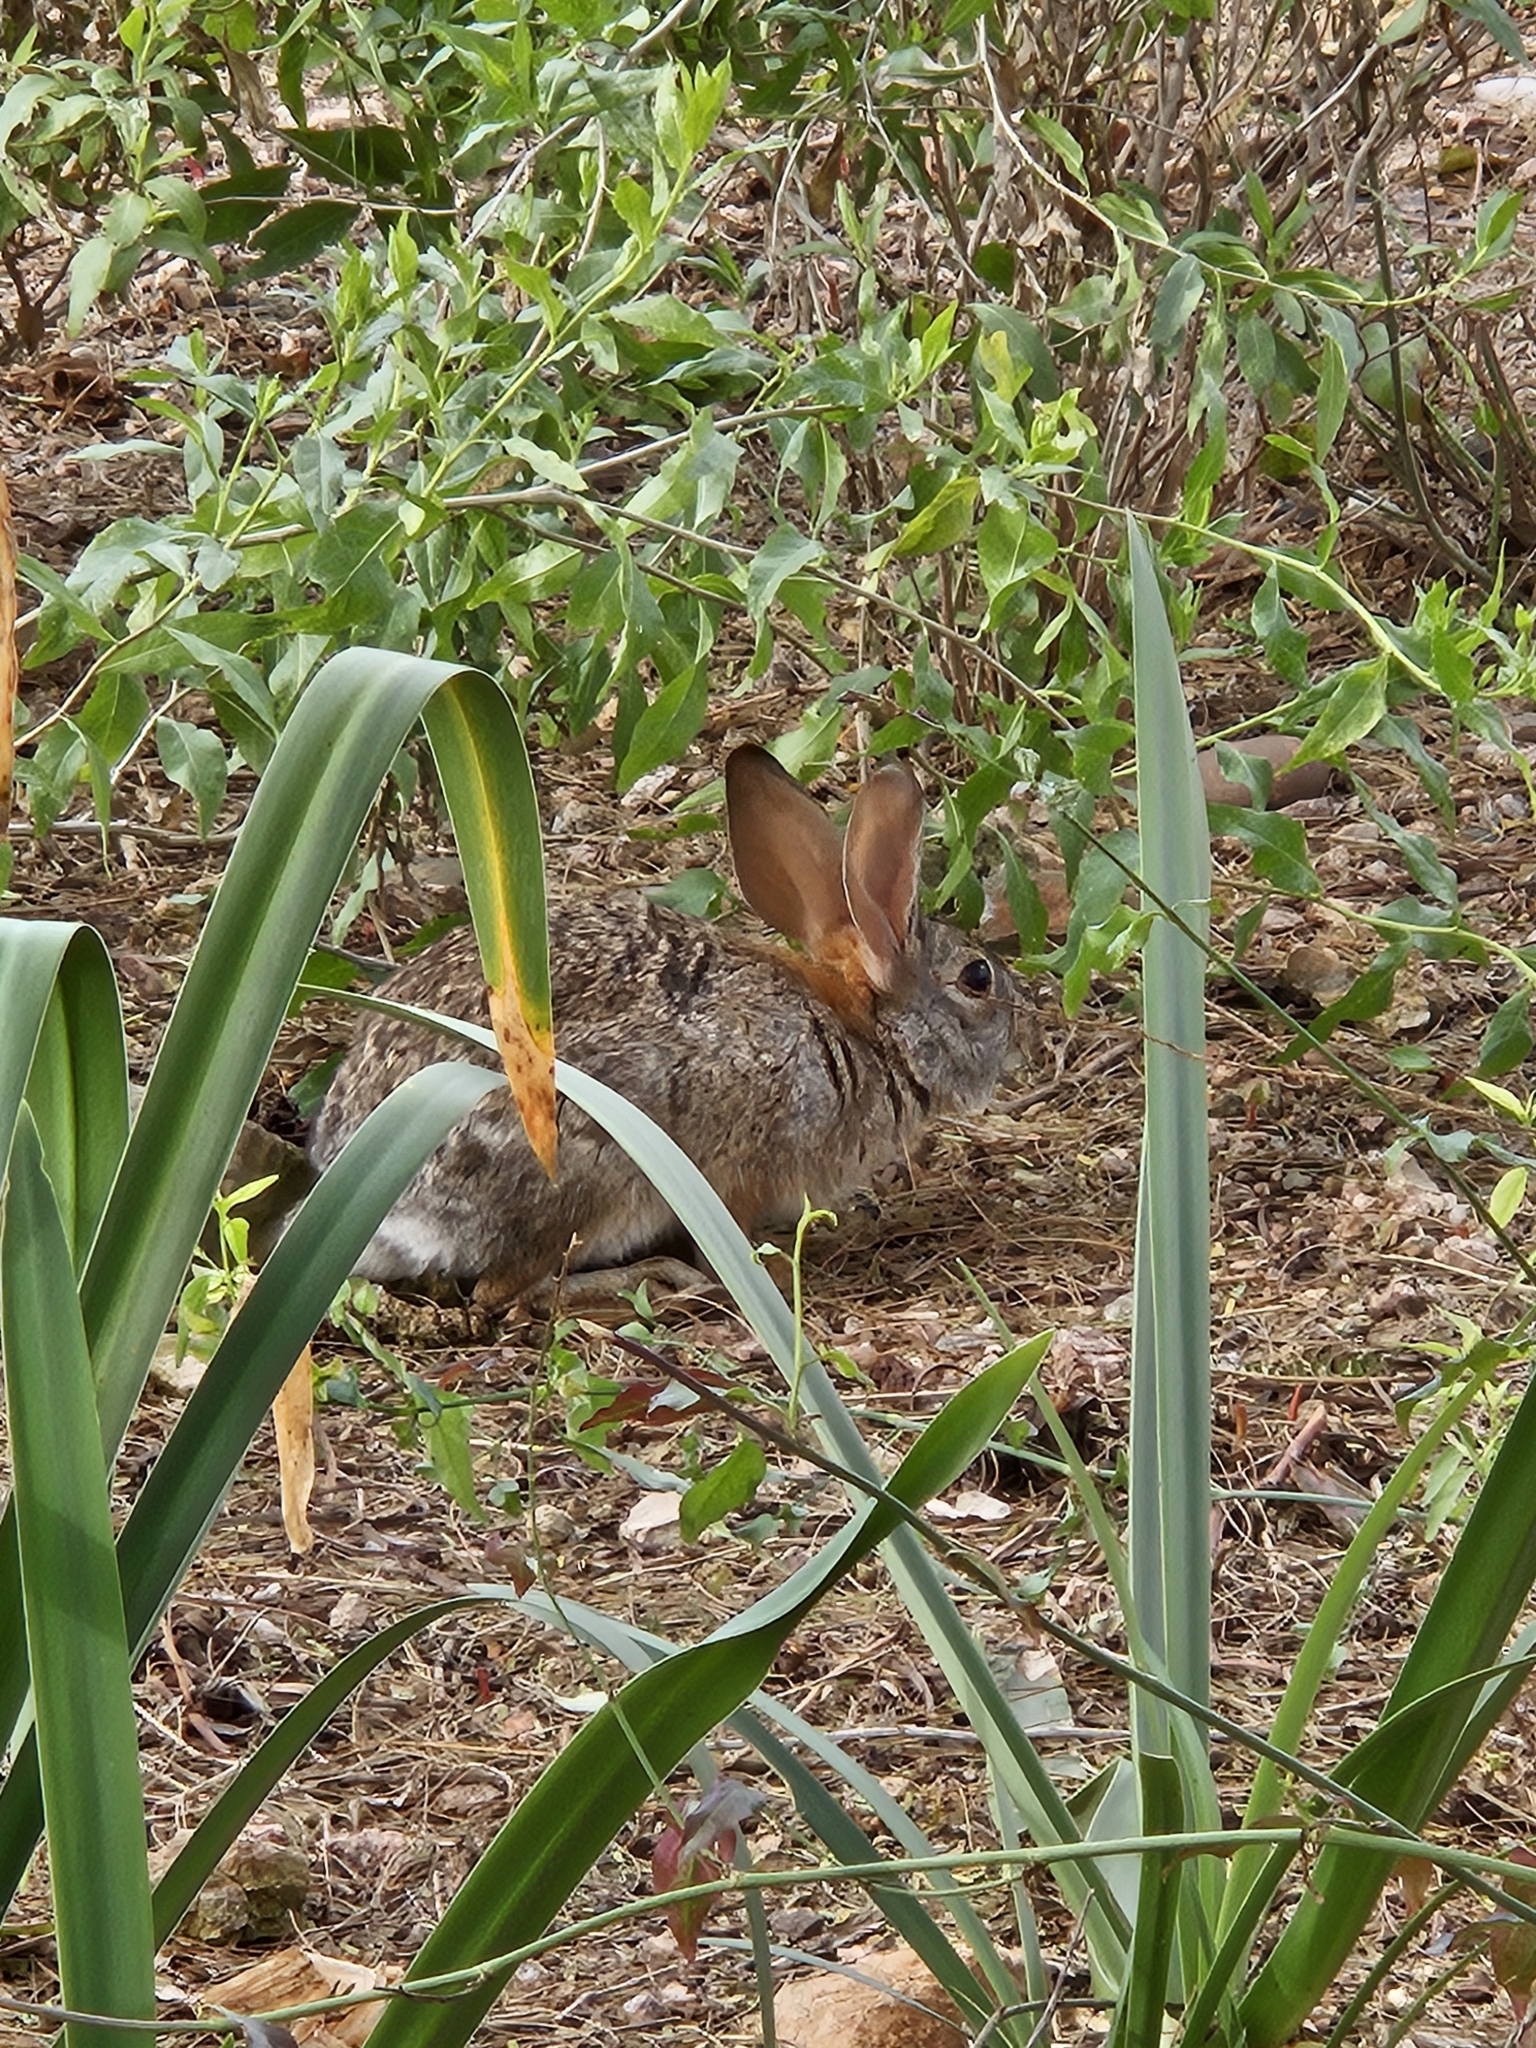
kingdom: Animalia
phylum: Chordata
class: Mammalia
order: Lagomorpha
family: Leporidae
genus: Sylvilagus
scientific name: Sylvilagus audubonii
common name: Desert cottontail
